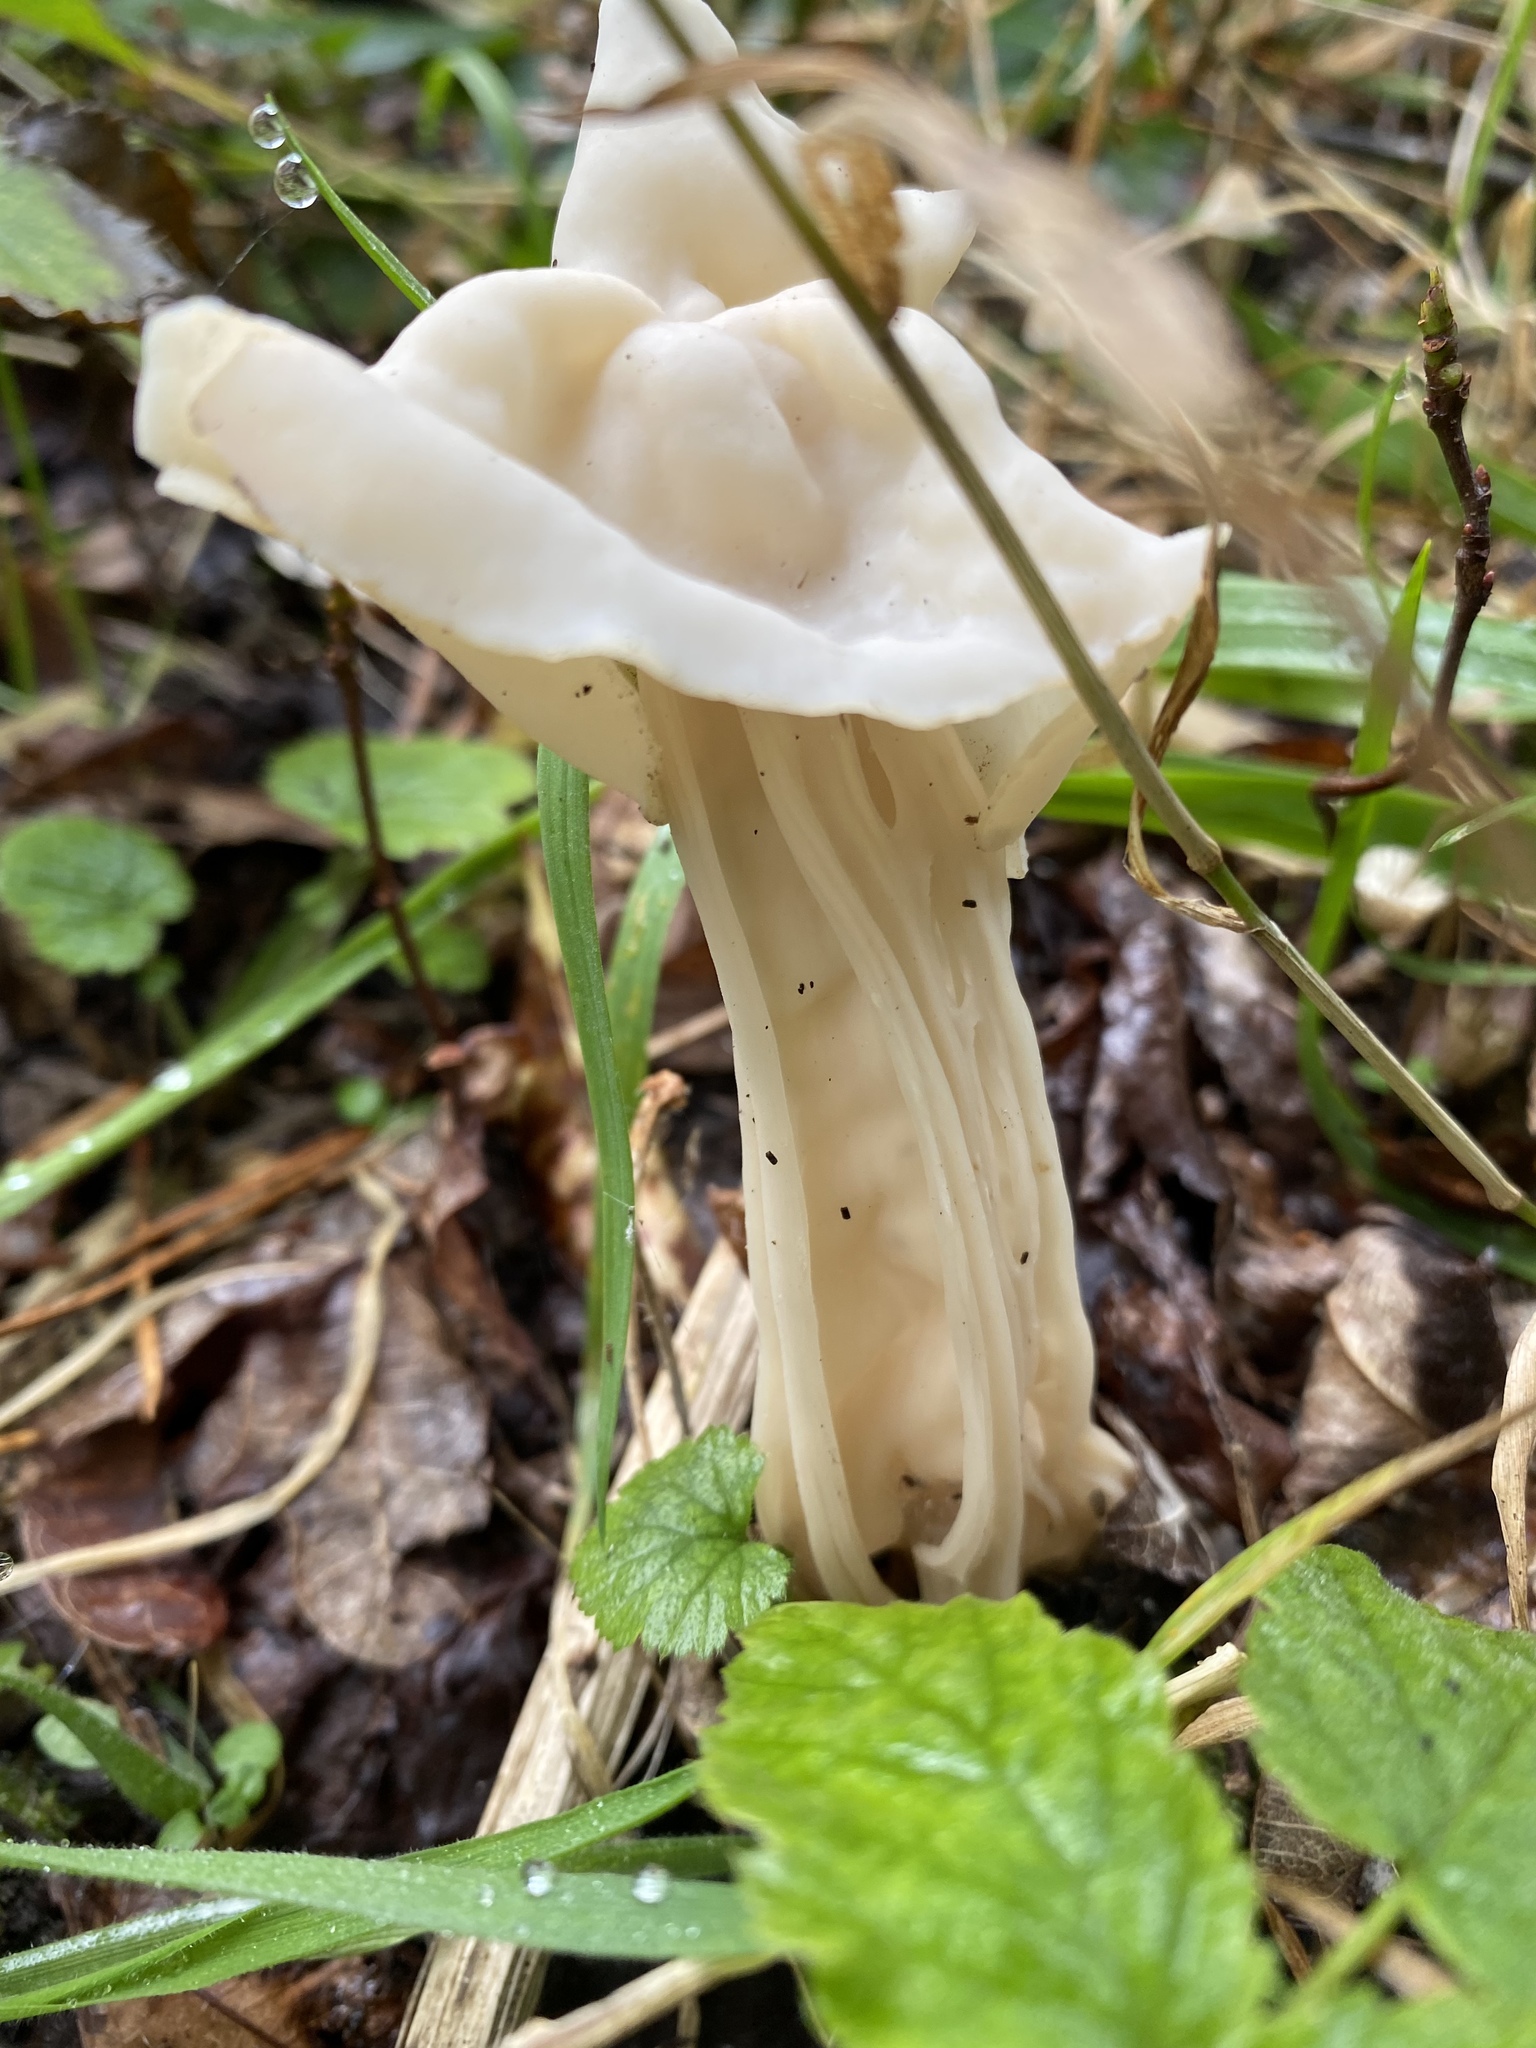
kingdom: Fungi
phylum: Ascomycota
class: Pezizomycetes
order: Pezizales
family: Helvellaceae
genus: Helvella
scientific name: Helvella crispa
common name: White saddle
